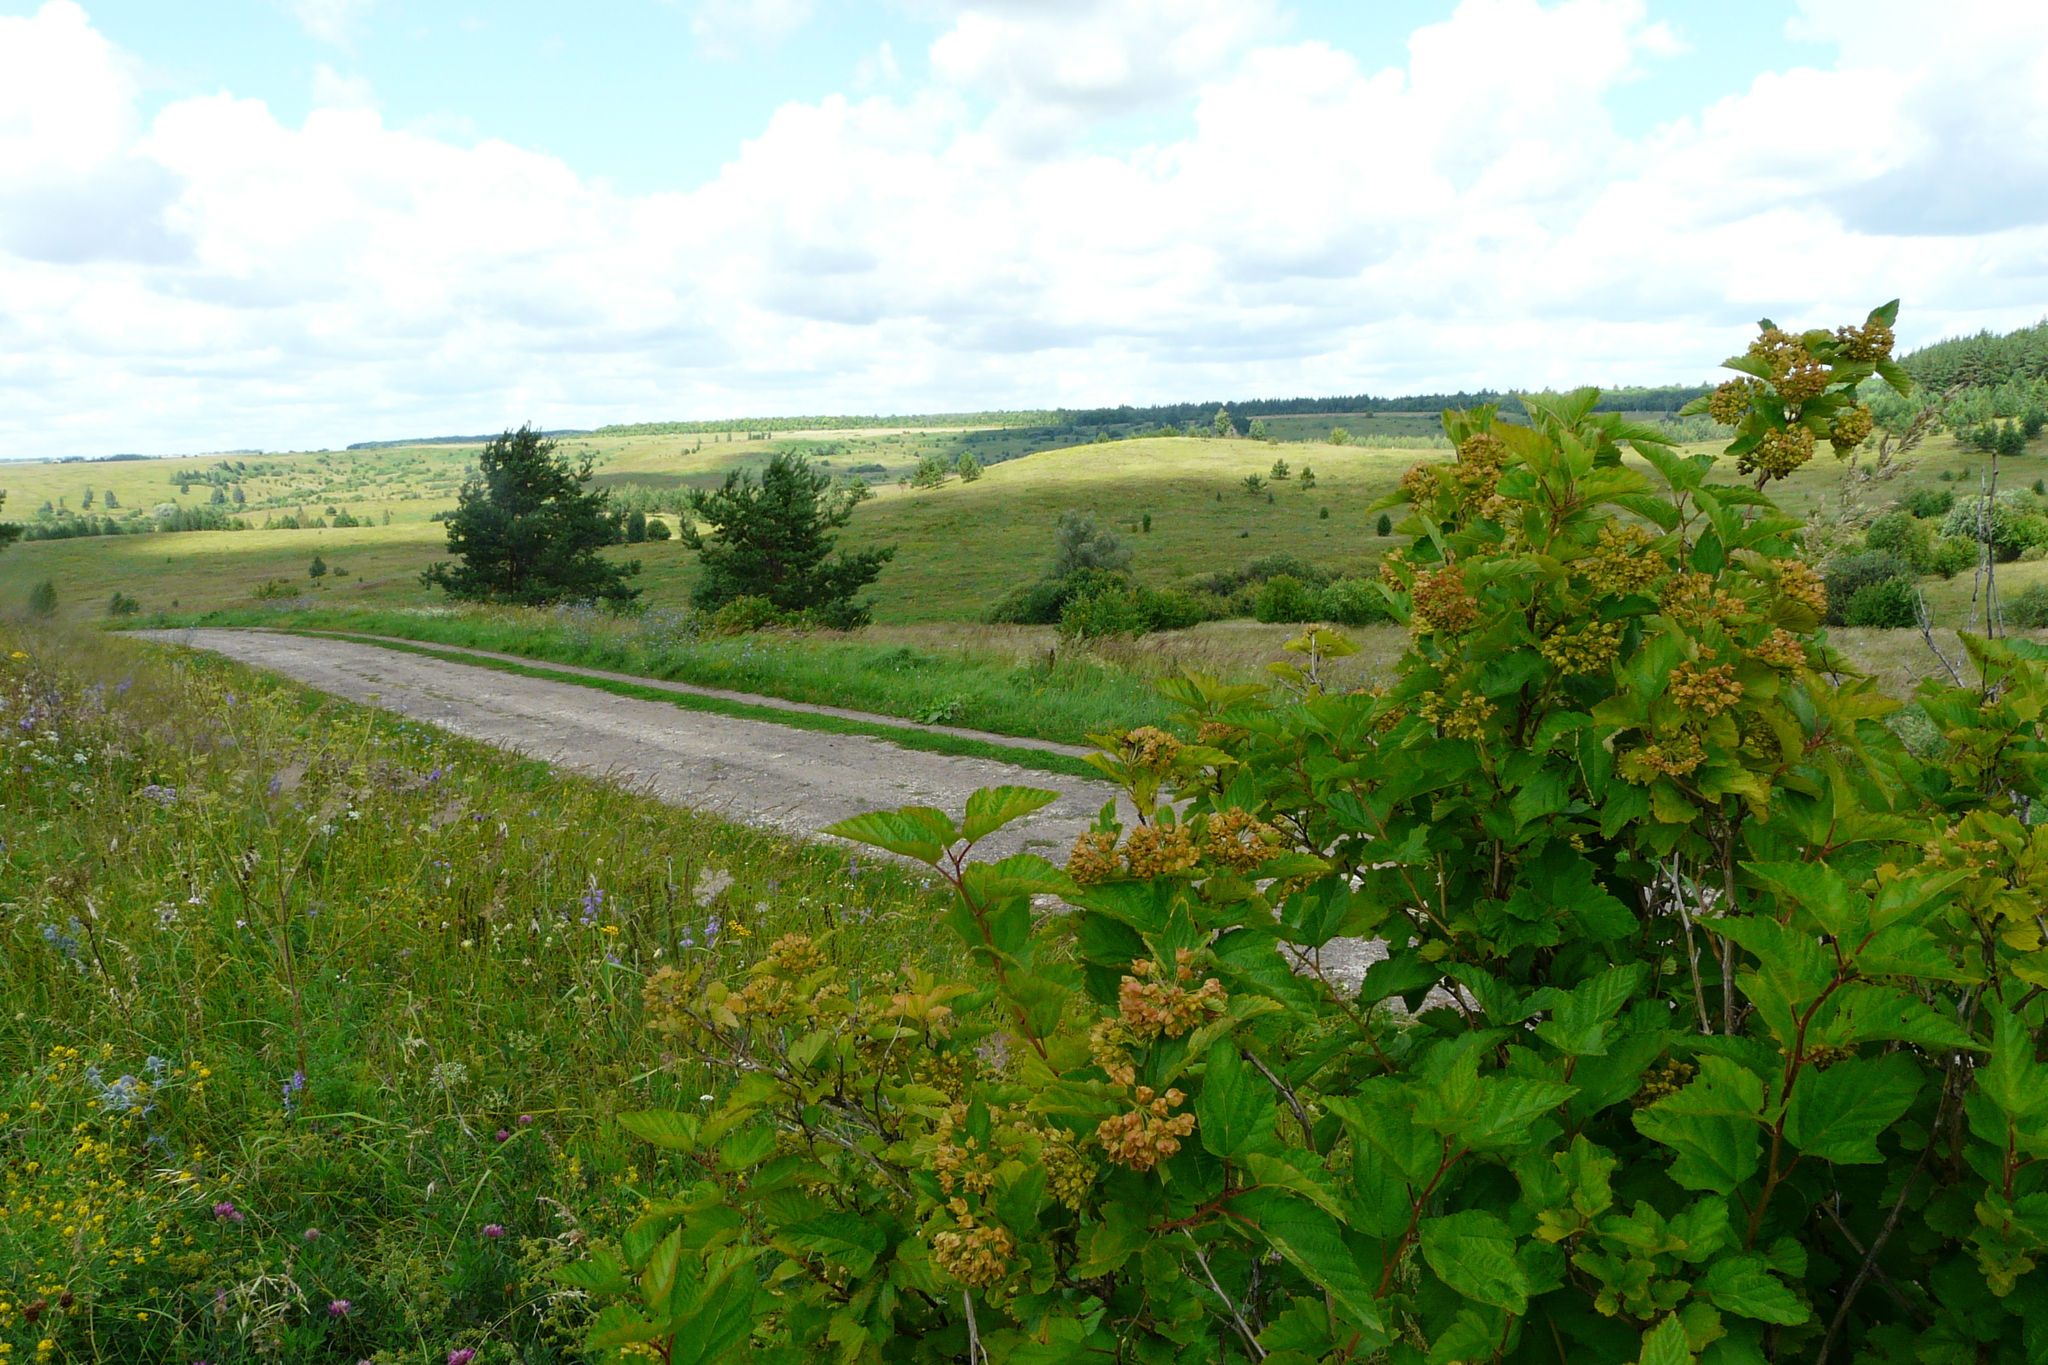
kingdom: Plantae
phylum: Tracheophyta
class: Magnoliopsida
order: Rosales
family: Rosaceae
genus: Physocarpus
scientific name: Physocarpus opulifolius
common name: Ninebark
